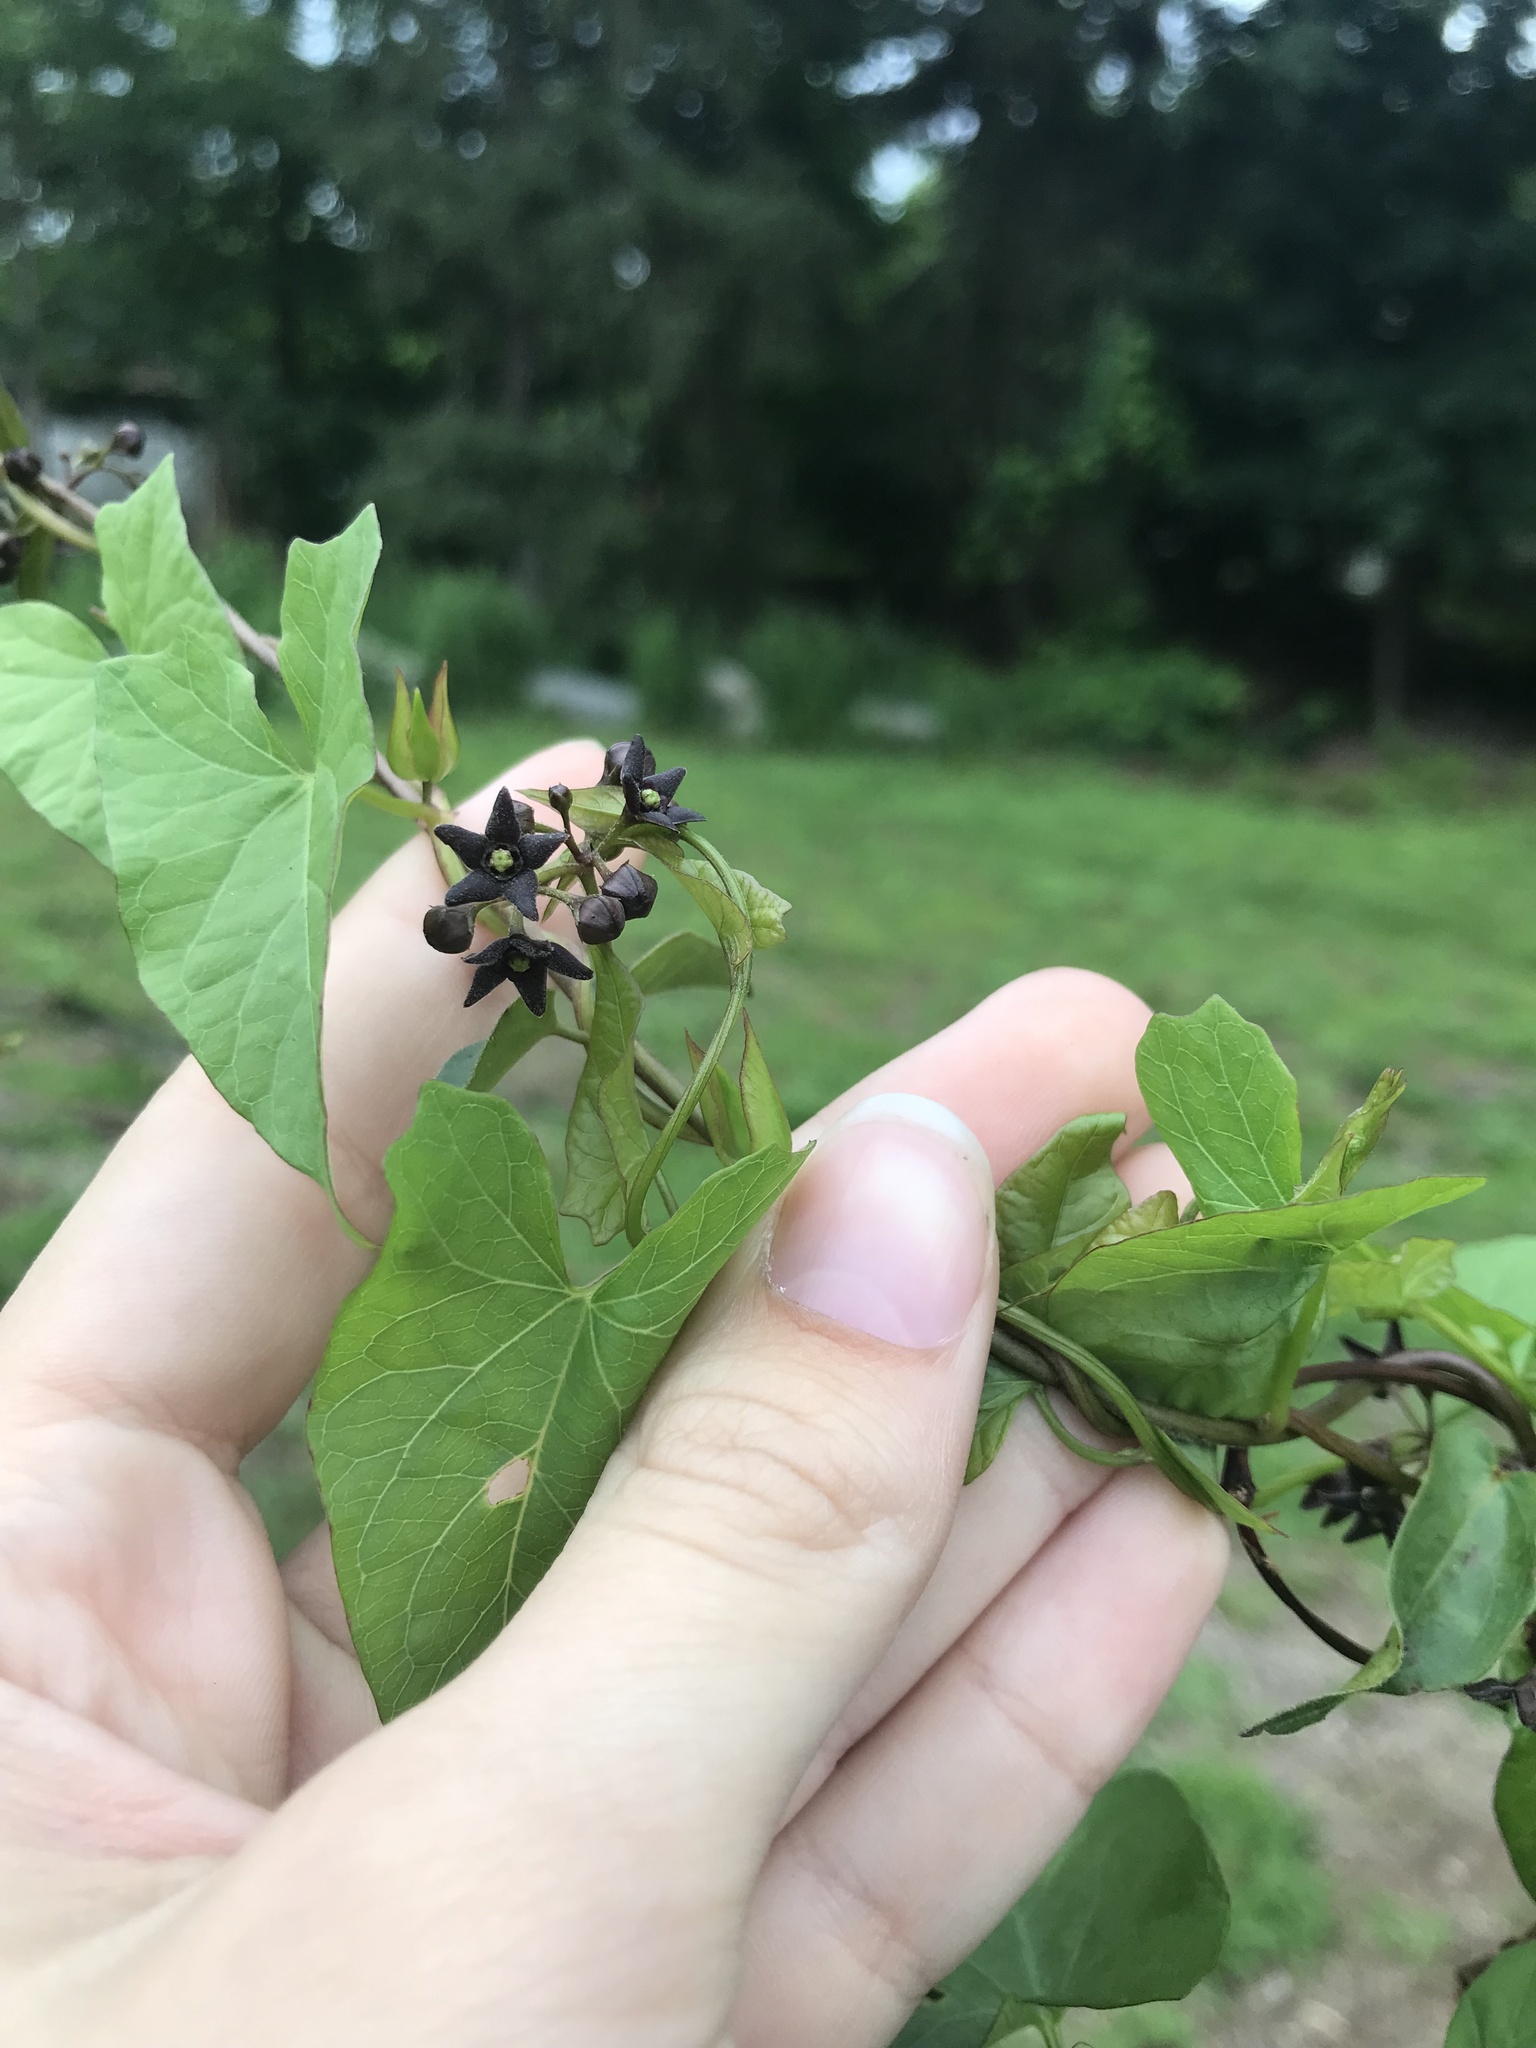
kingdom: Plantae
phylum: Tracheophyta
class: Magnoliopsida
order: Gentianales
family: Apocynaceae
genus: Vincetoxicum
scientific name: Vincetoxicum nigrum
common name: Black swallow-wort
